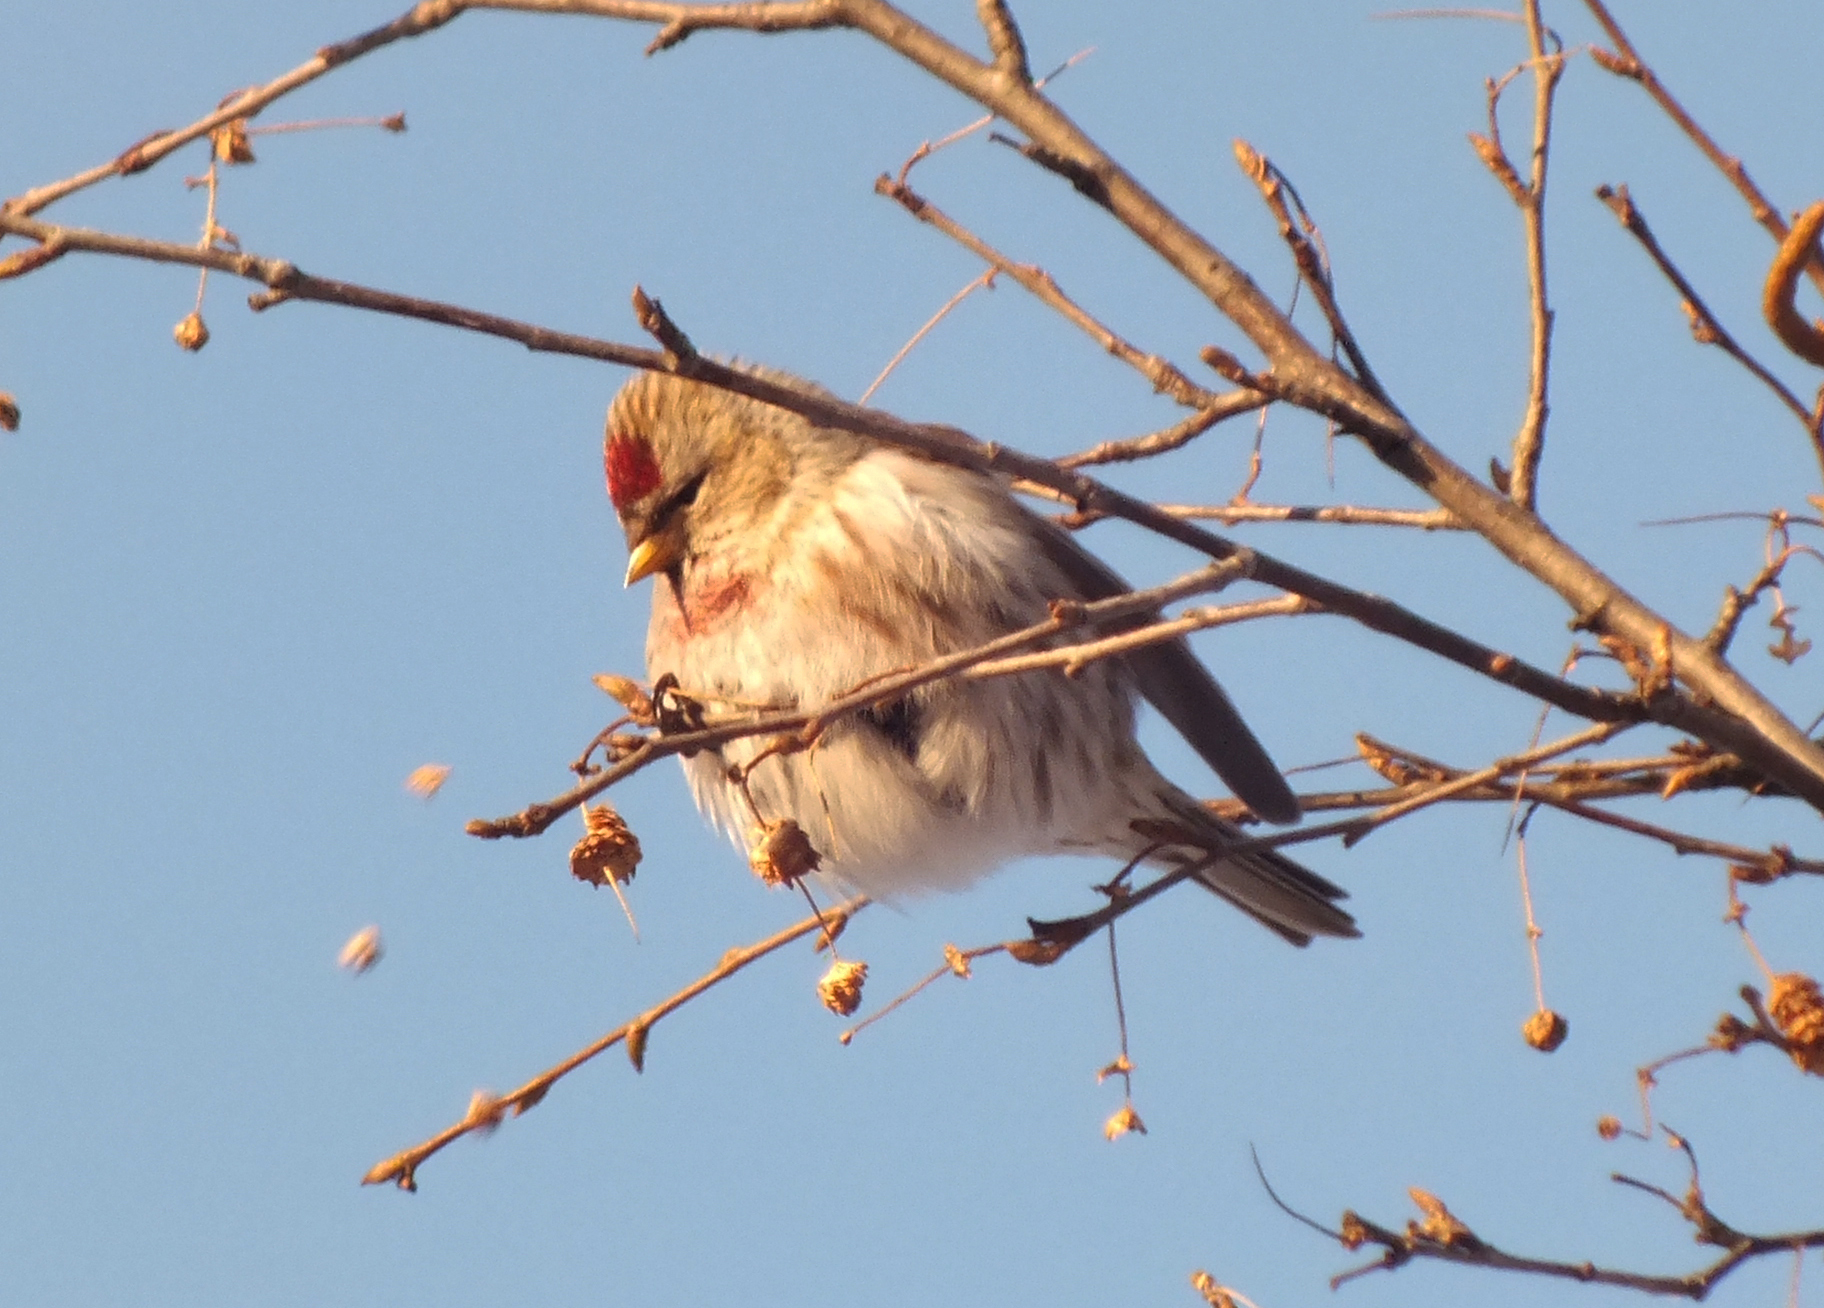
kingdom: Animalia
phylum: Chordata
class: Aves
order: Passeriformes
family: Fringillidae
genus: Acanthis
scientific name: Acanthis flammea
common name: Common redpoll
